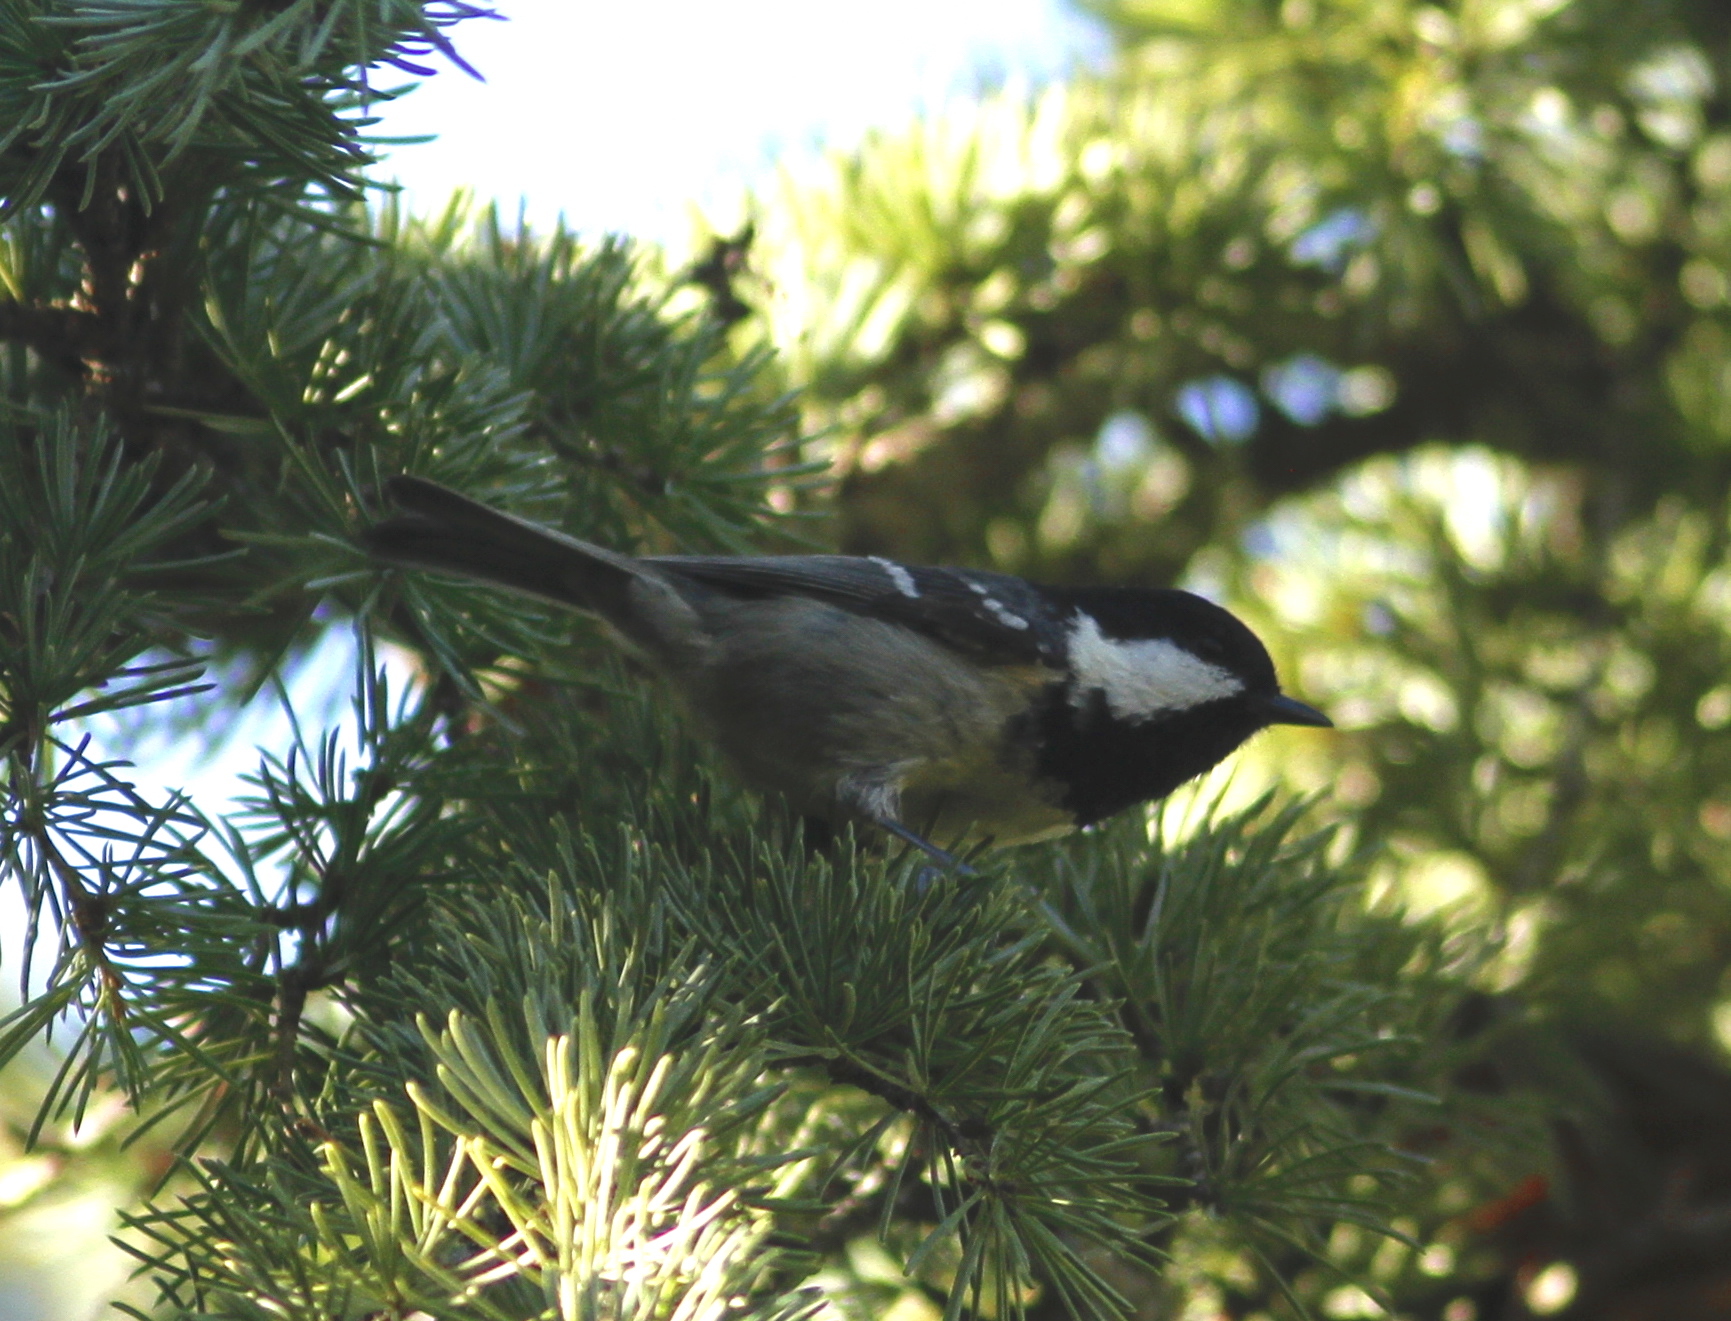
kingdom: Animalia
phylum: Chordata
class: Aves
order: Passeriformes
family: Paridae
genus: Periparus
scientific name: Periparus ater
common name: Coal tit
